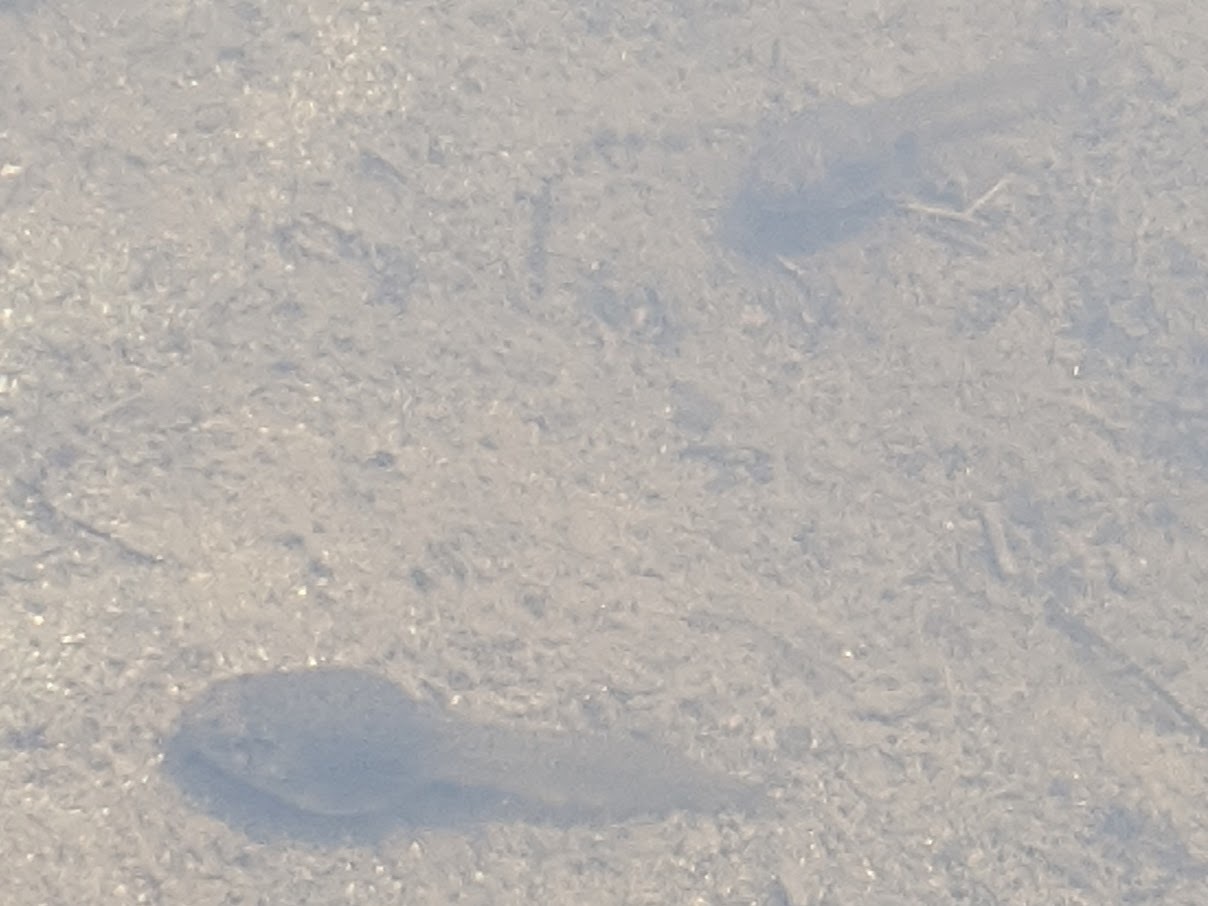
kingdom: Animalia
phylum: Chordata
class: Amphibia
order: Anura
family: Ranidae
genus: Lithobates
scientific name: Lithobates catesbeianus
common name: American bullfrog
